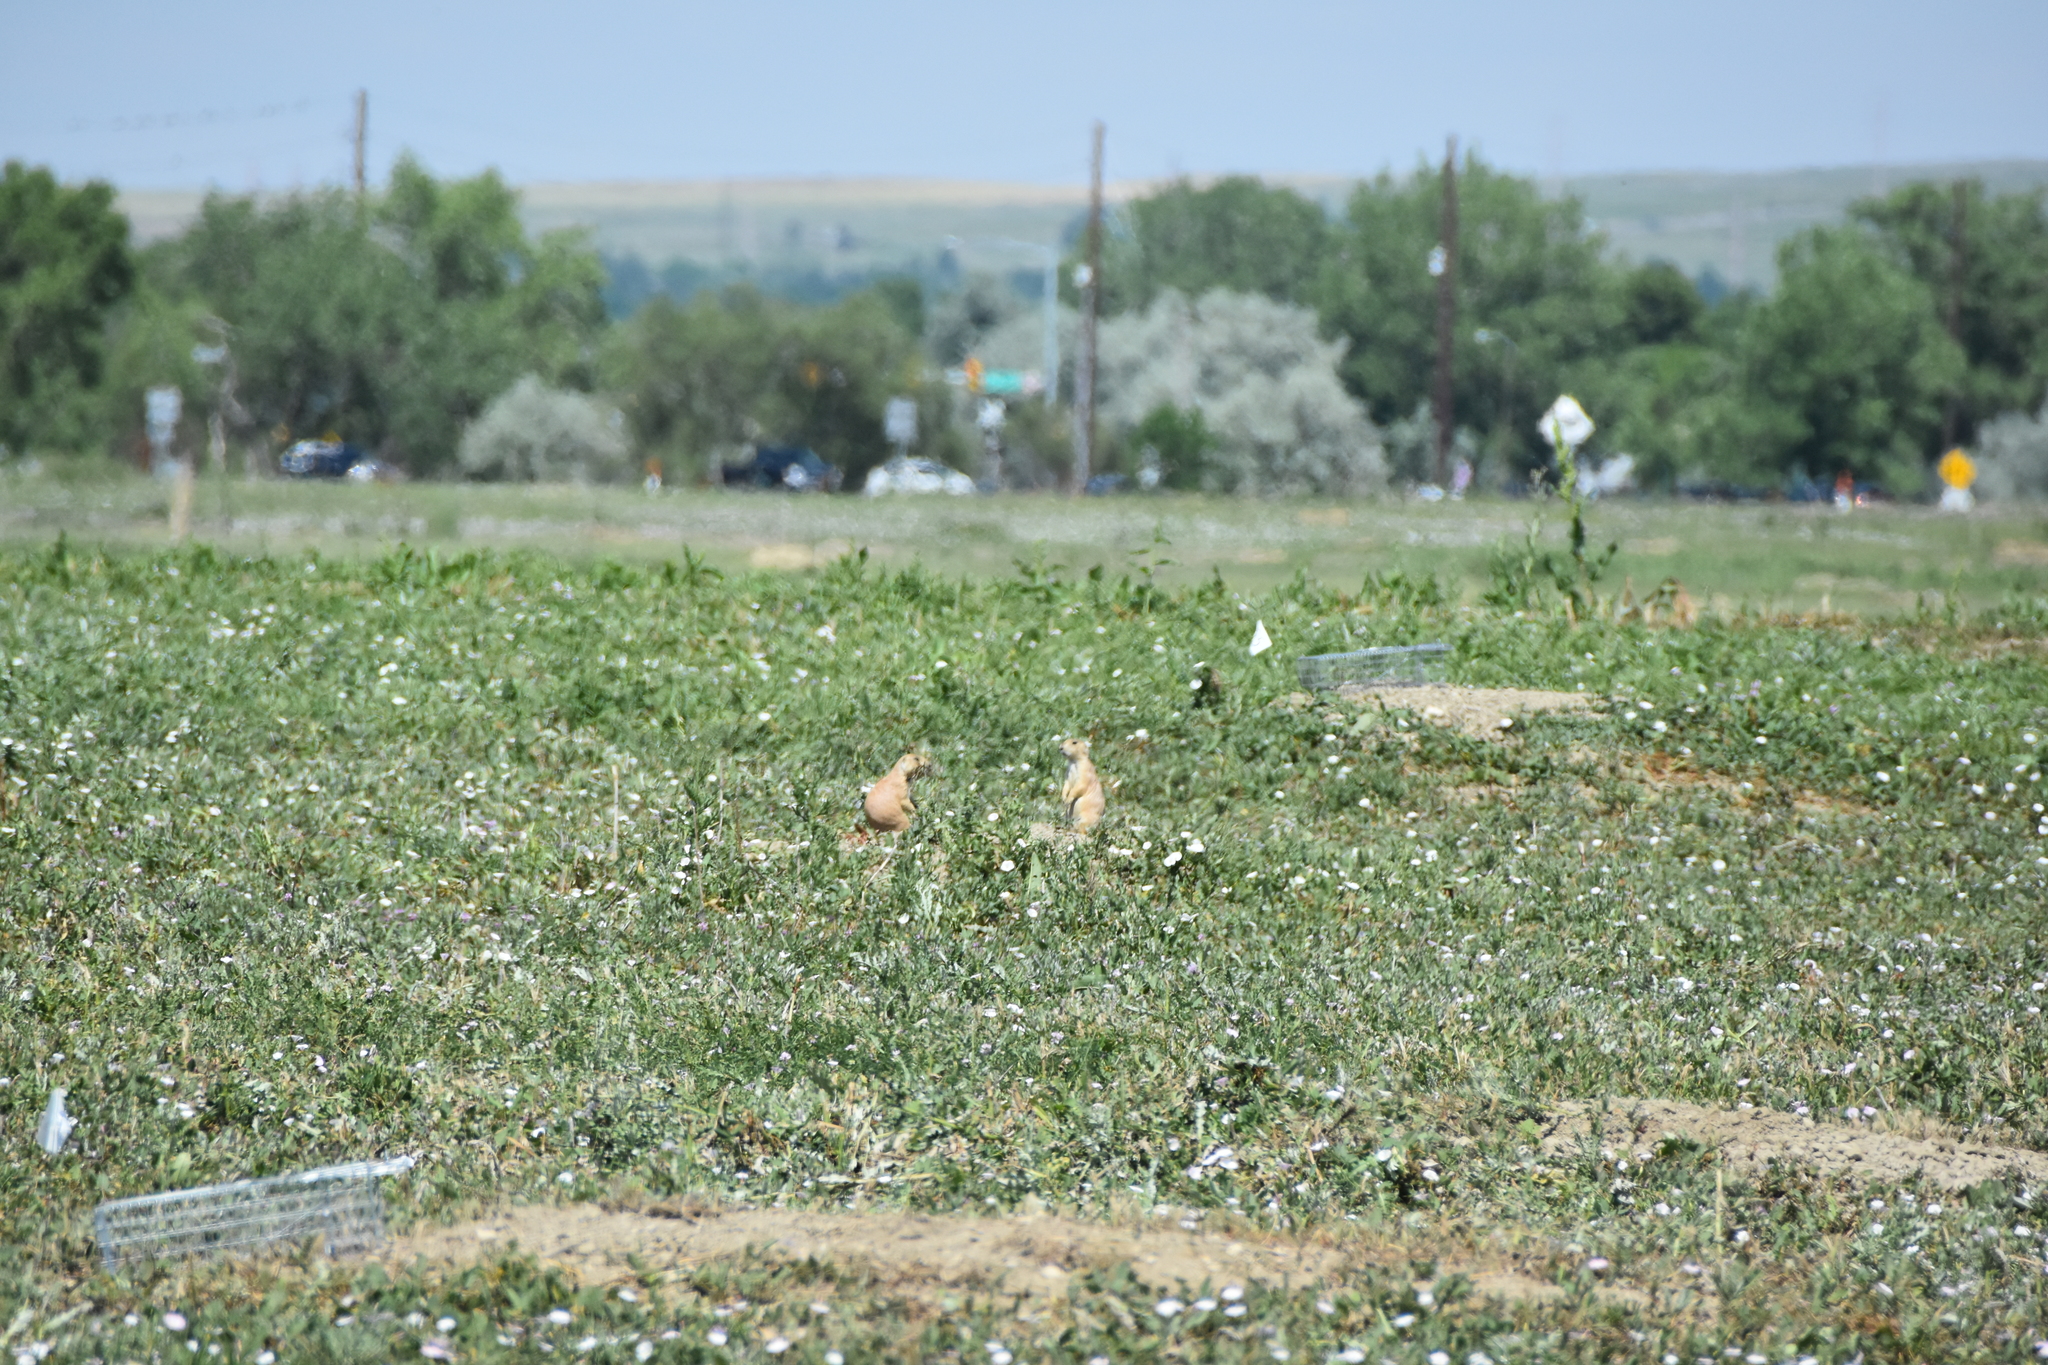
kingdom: Animalia
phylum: Chordata
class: Mammalia
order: Rodentia
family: Sciuridae
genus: Cynomys
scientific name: Cynomys ludovicianus
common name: Black-tailed prairie dog
